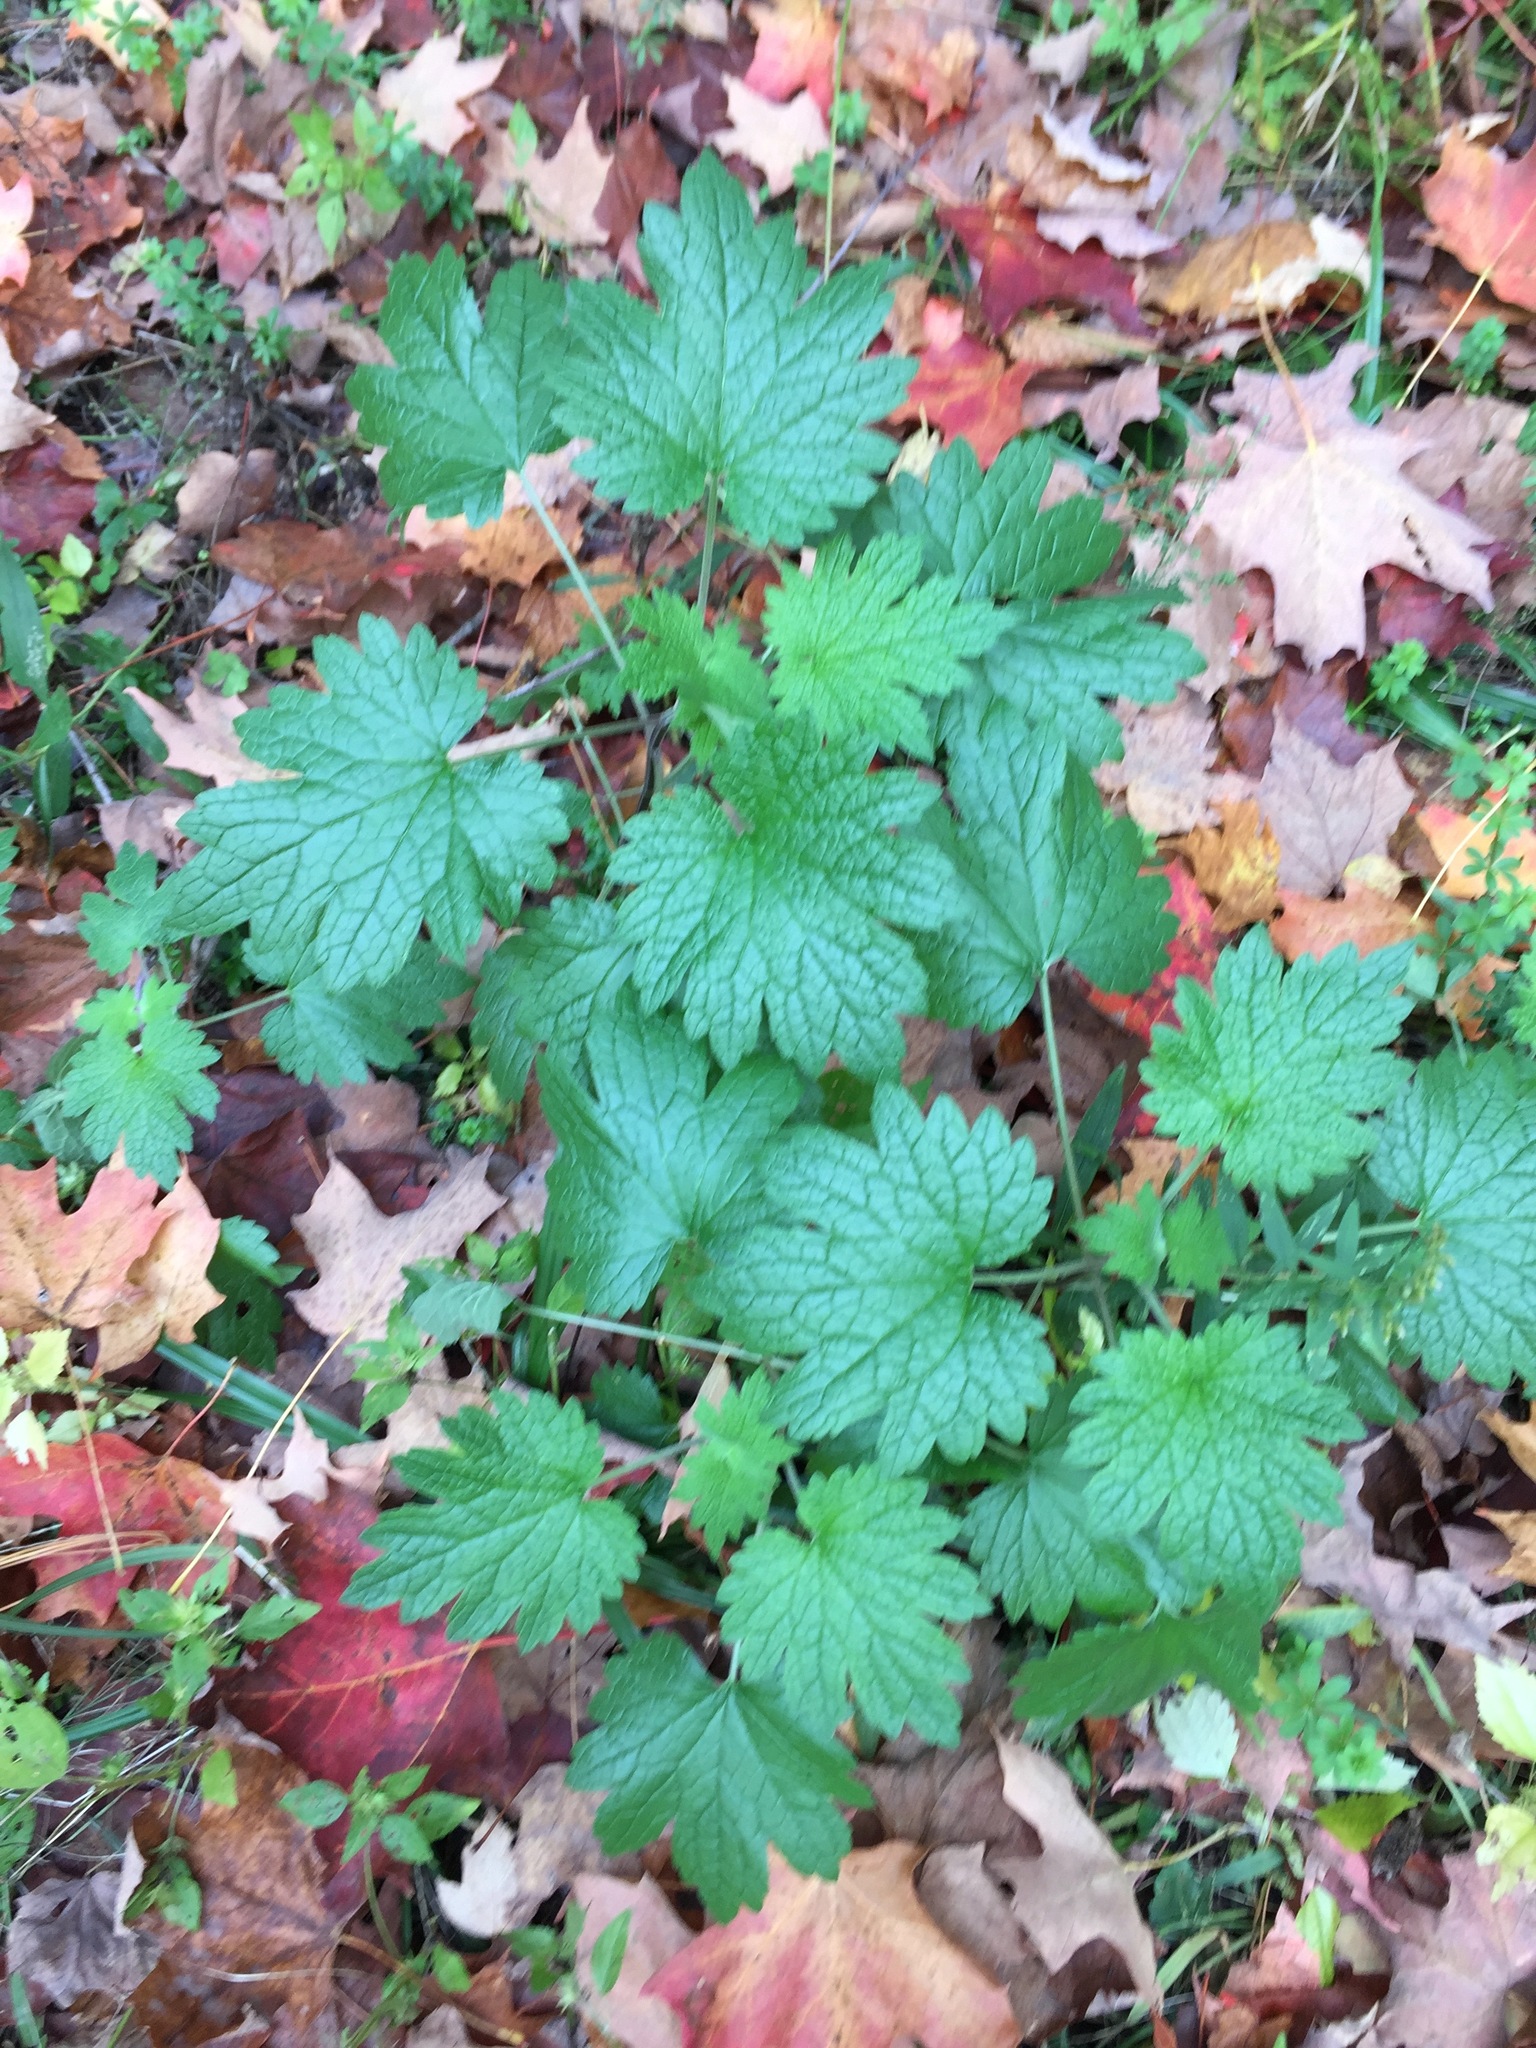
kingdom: Plantae
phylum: Tracheophyta
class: Magnoliopsida
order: Lamiales
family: Lamiaceae
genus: Leonurus
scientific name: Leonurus cardiaca
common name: Motherwort
